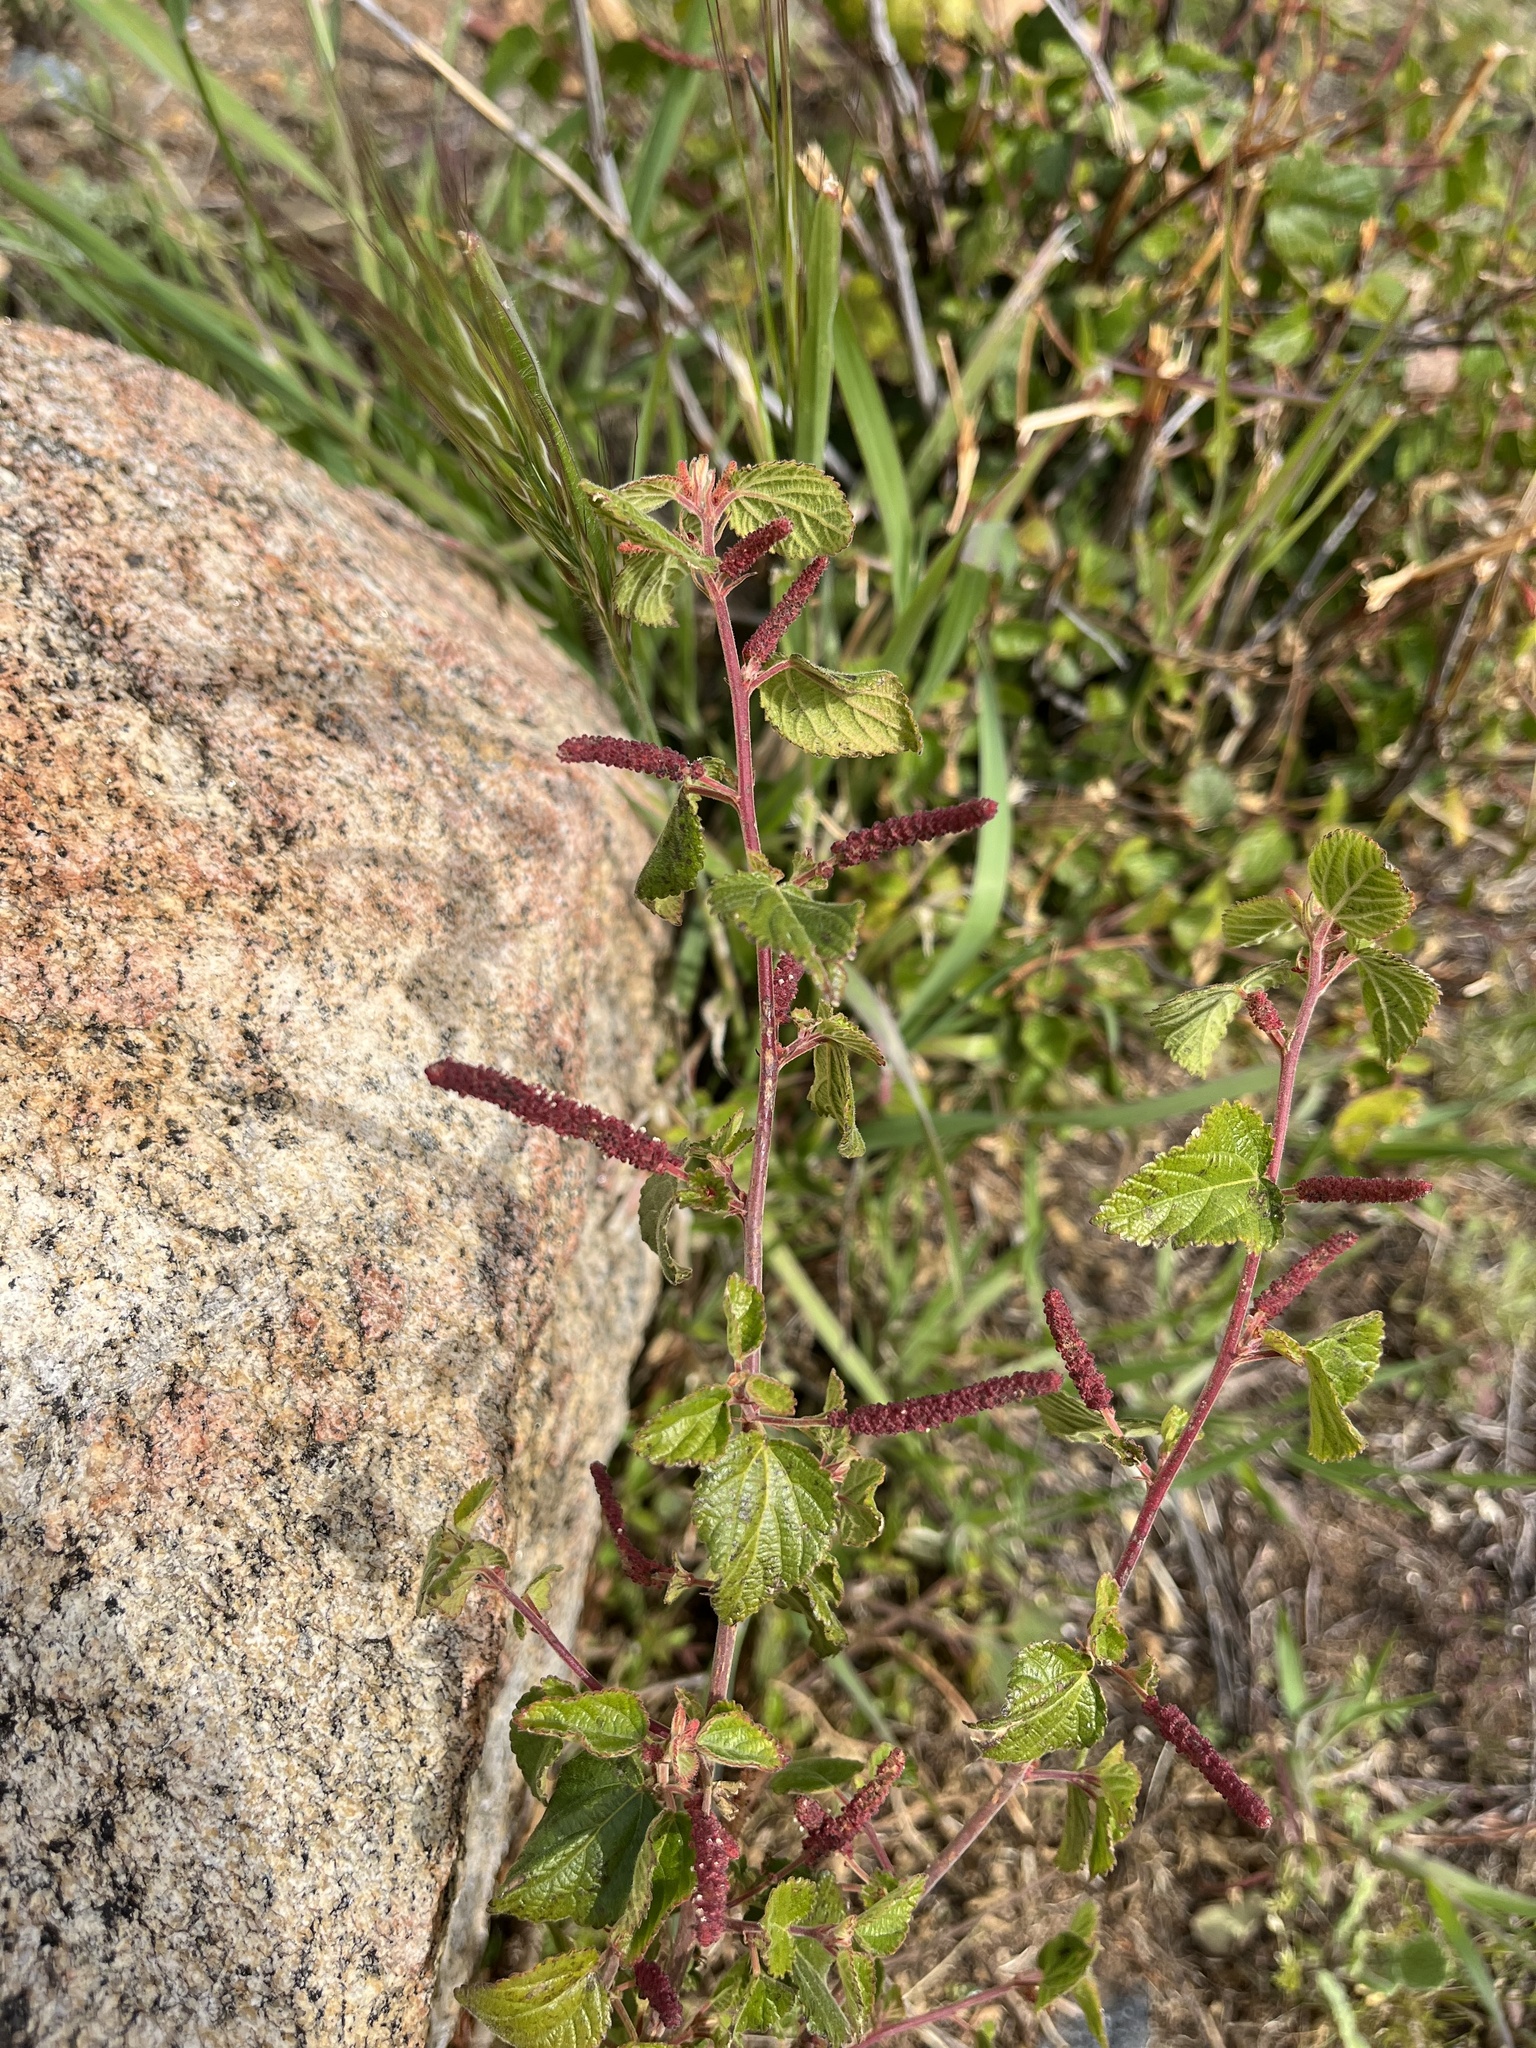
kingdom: Plantae
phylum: Tracheophyta
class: Magnoliopsida
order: Malpighiales
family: Euphorbiaceae
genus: Acalypha
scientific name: Acalypha californica
